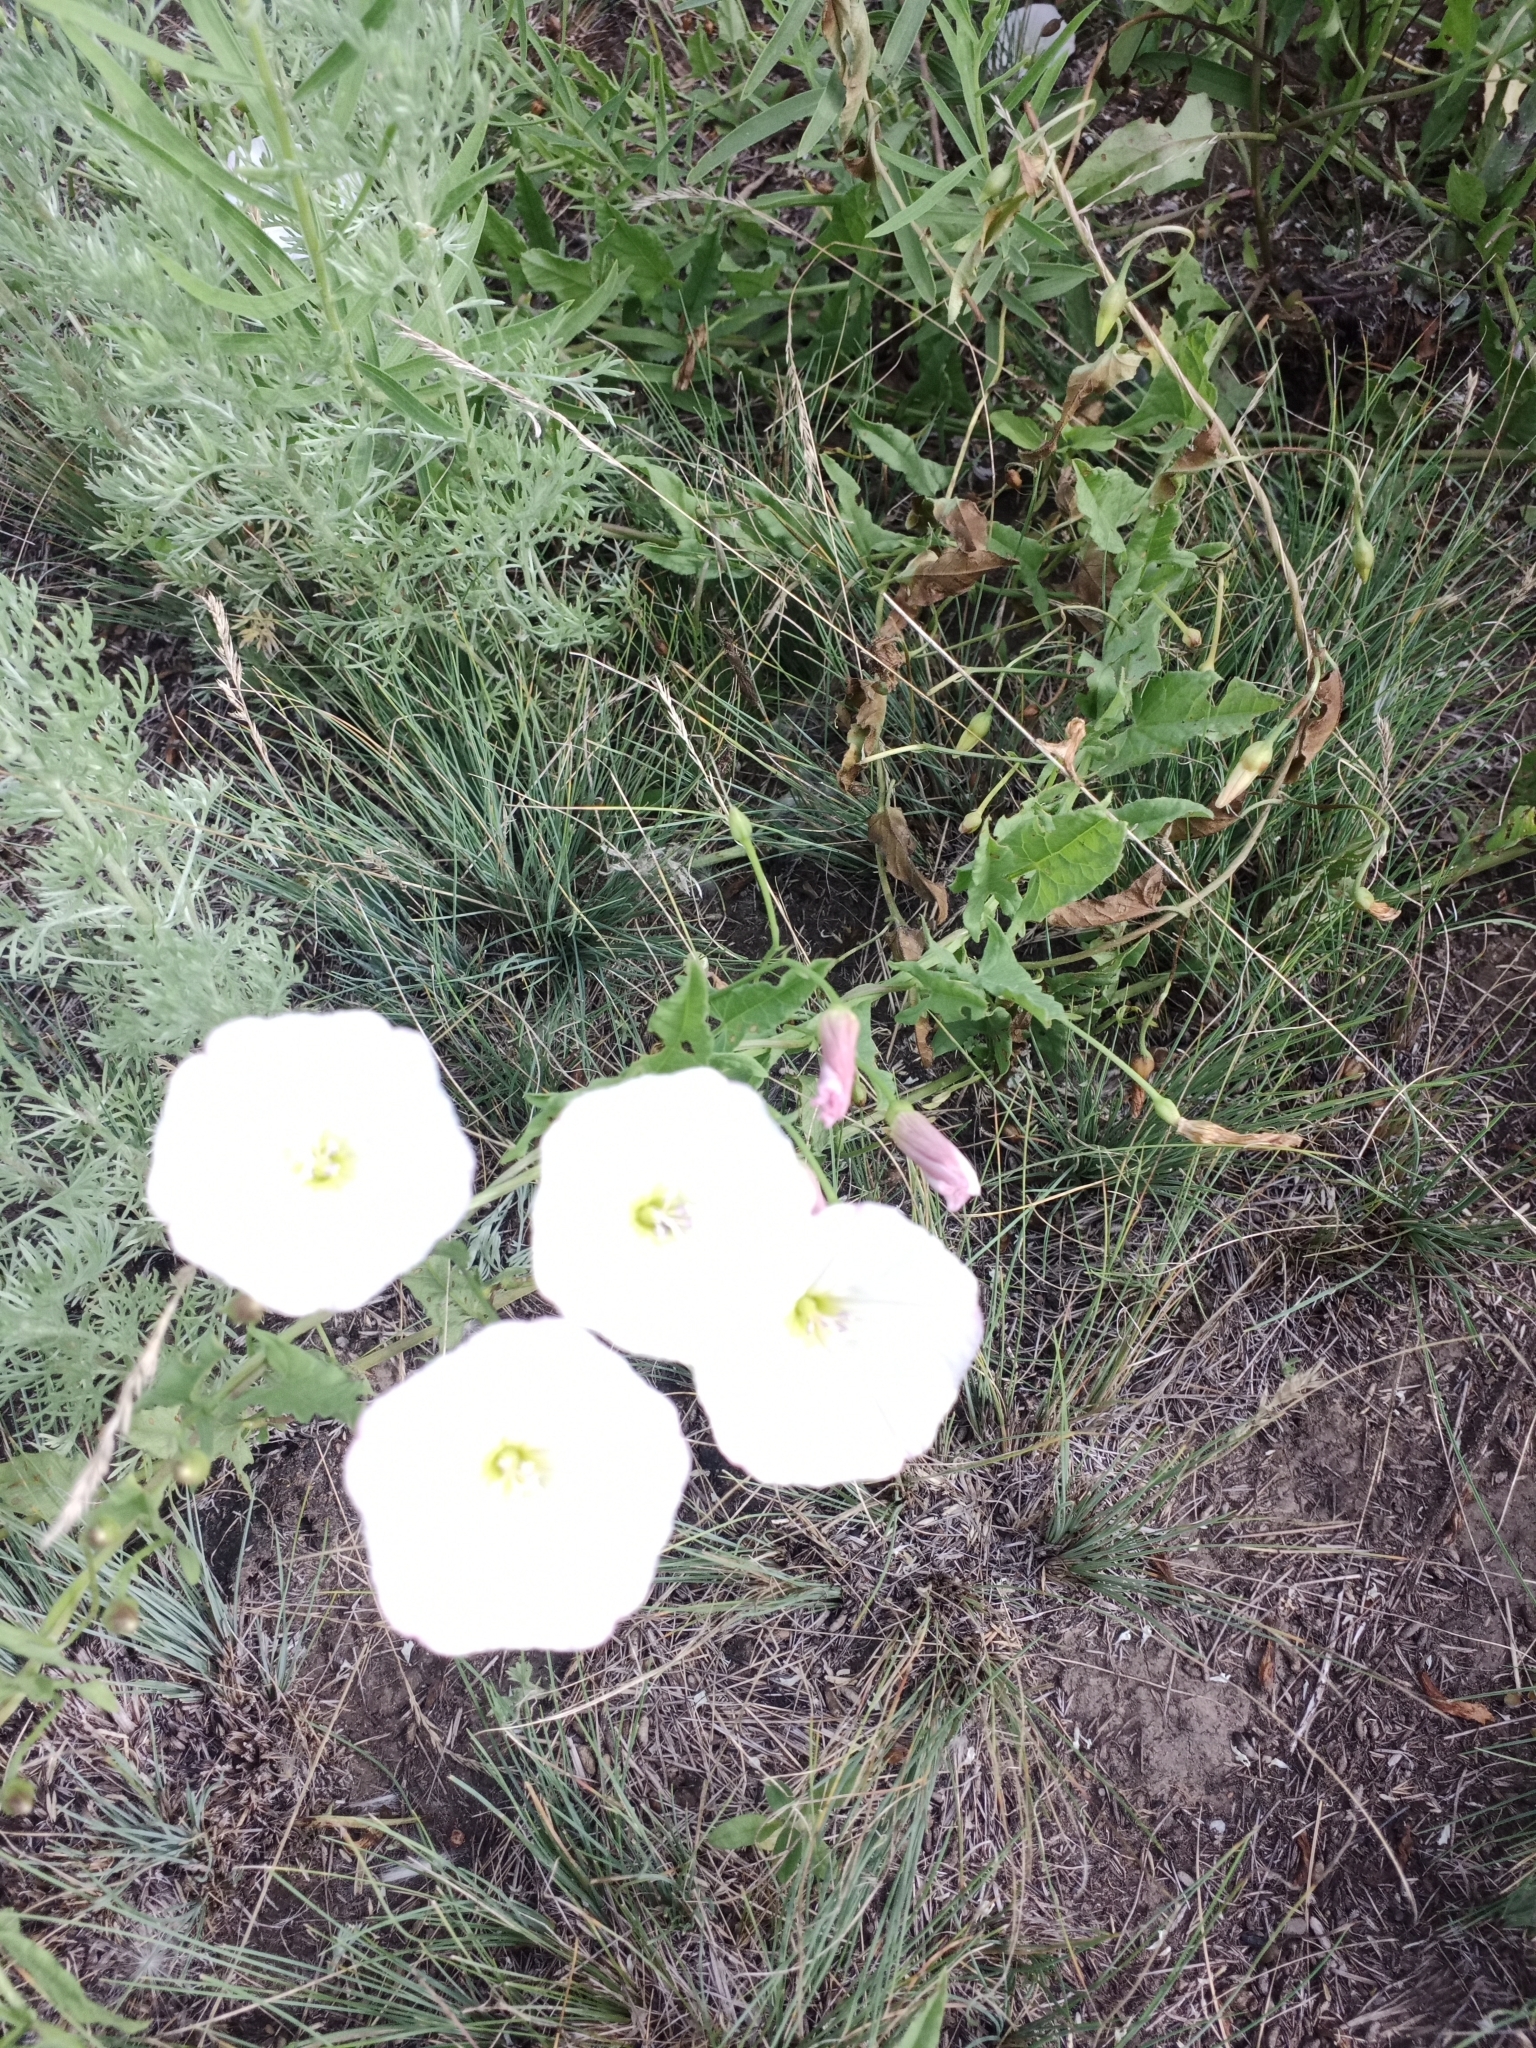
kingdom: Plantae
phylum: Tracheophyta
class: Magnoliopsida
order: Solanales
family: Convolvulaceae
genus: Convolvulus
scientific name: Convolvulus arvensis
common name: Field bindweed
